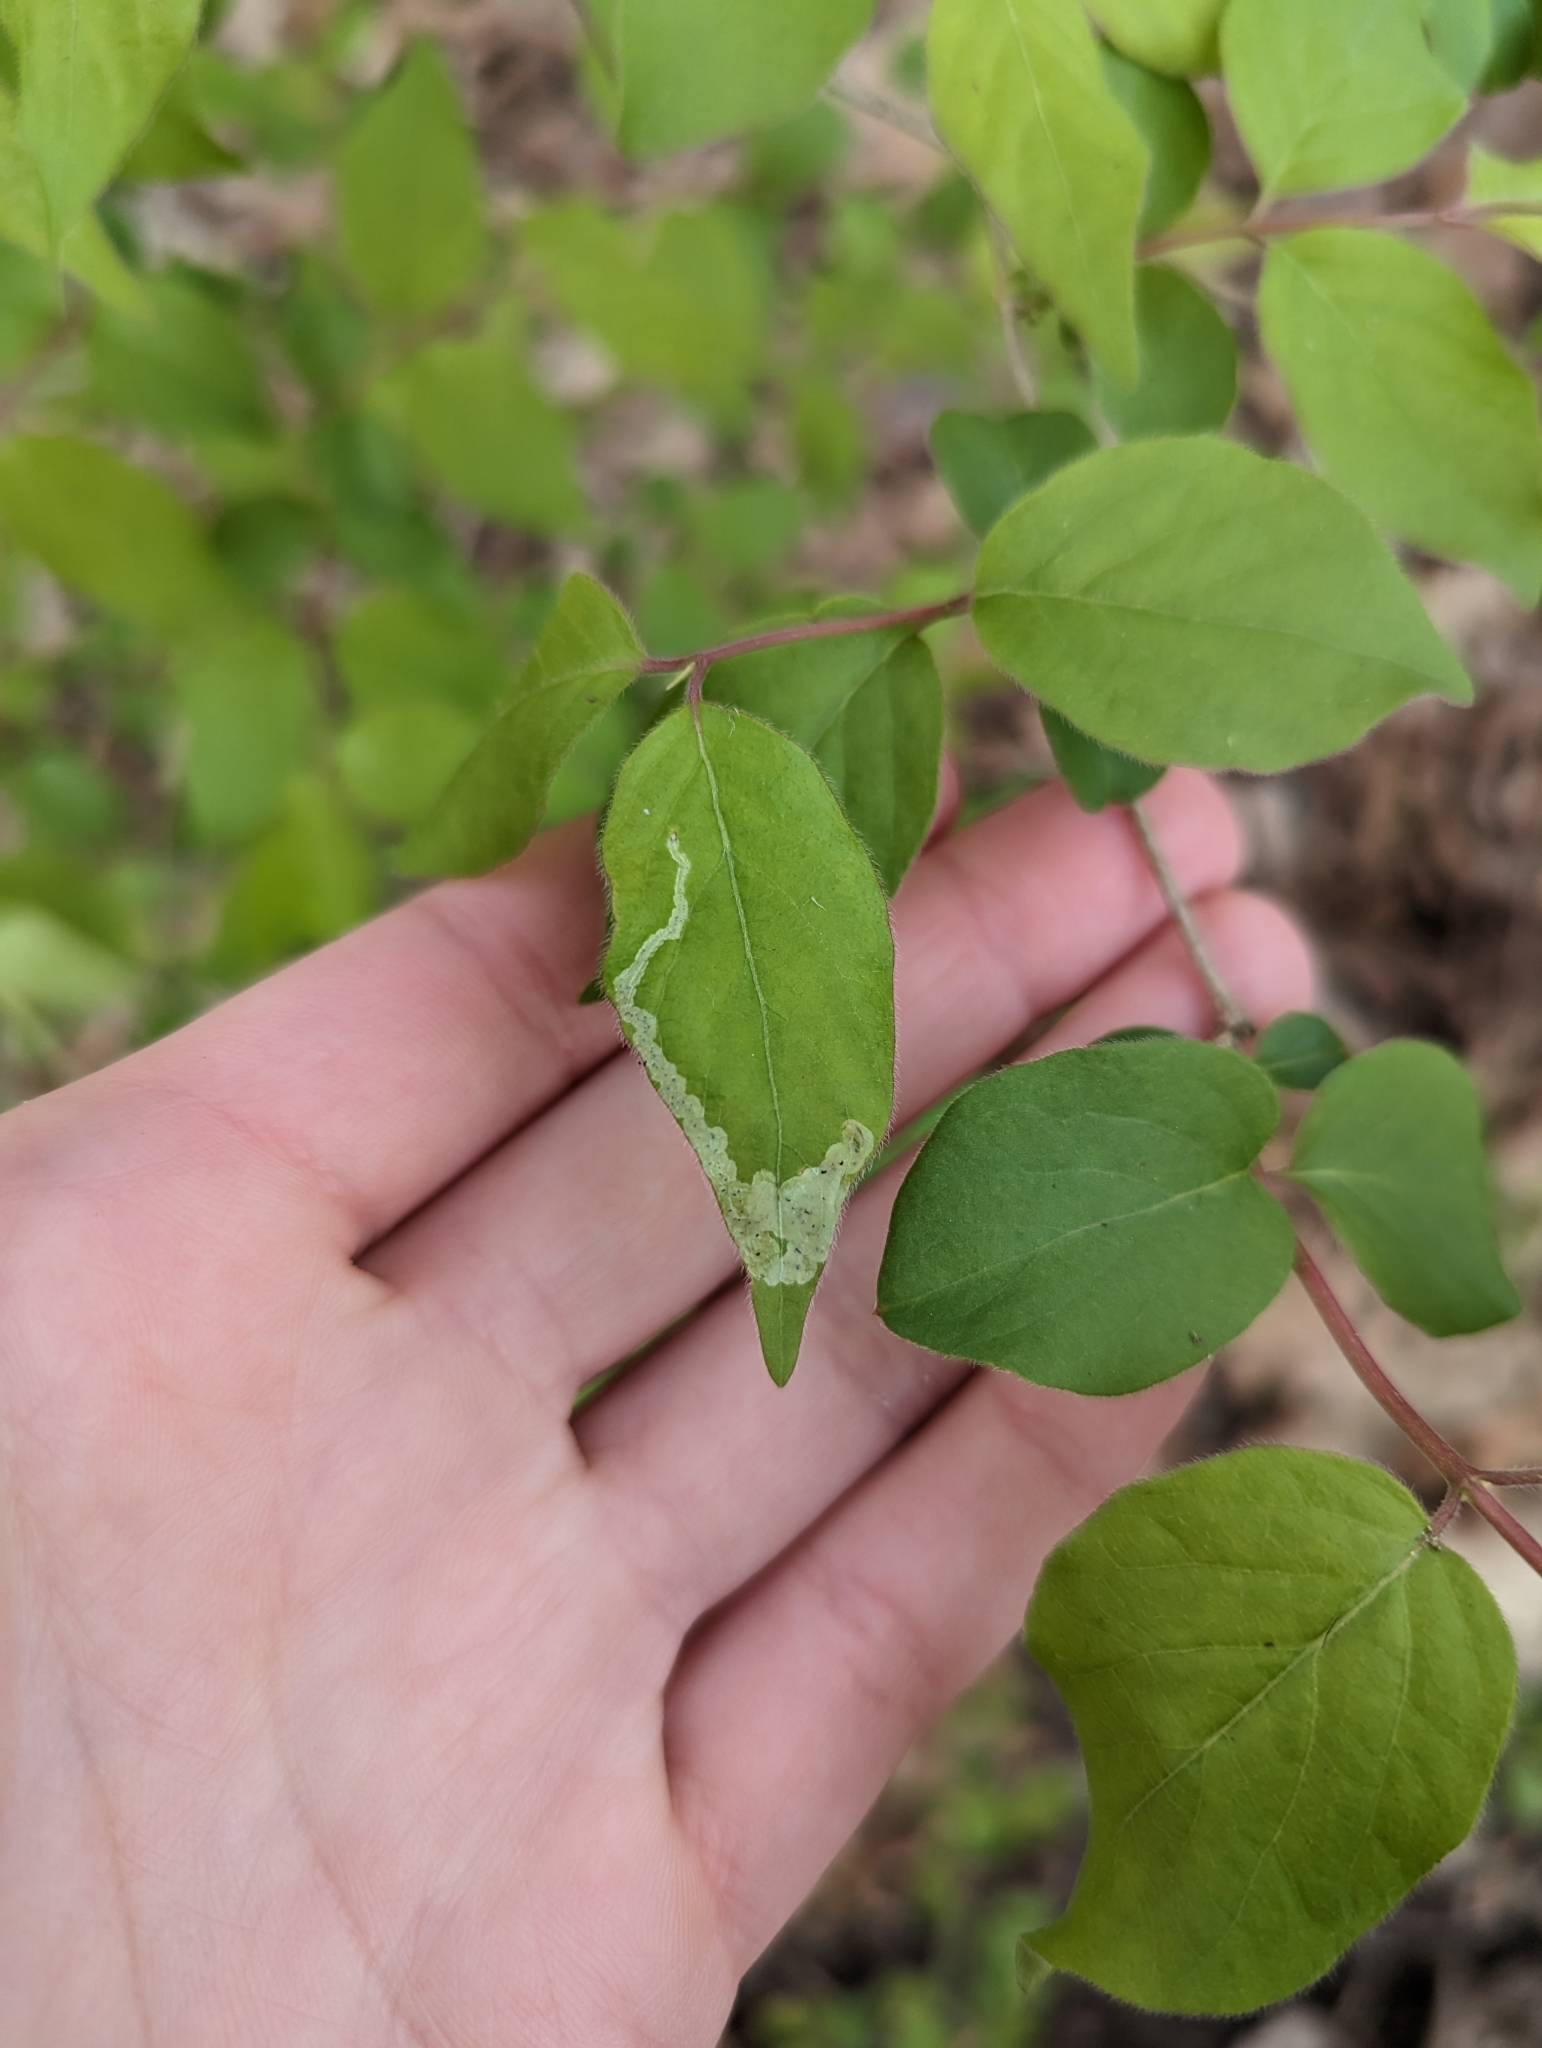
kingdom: Animalia
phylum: Arthropoda
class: Insecta
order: Diptera
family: Agromyzidae
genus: Aulagromyza
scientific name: Aulagromyza cornigera
